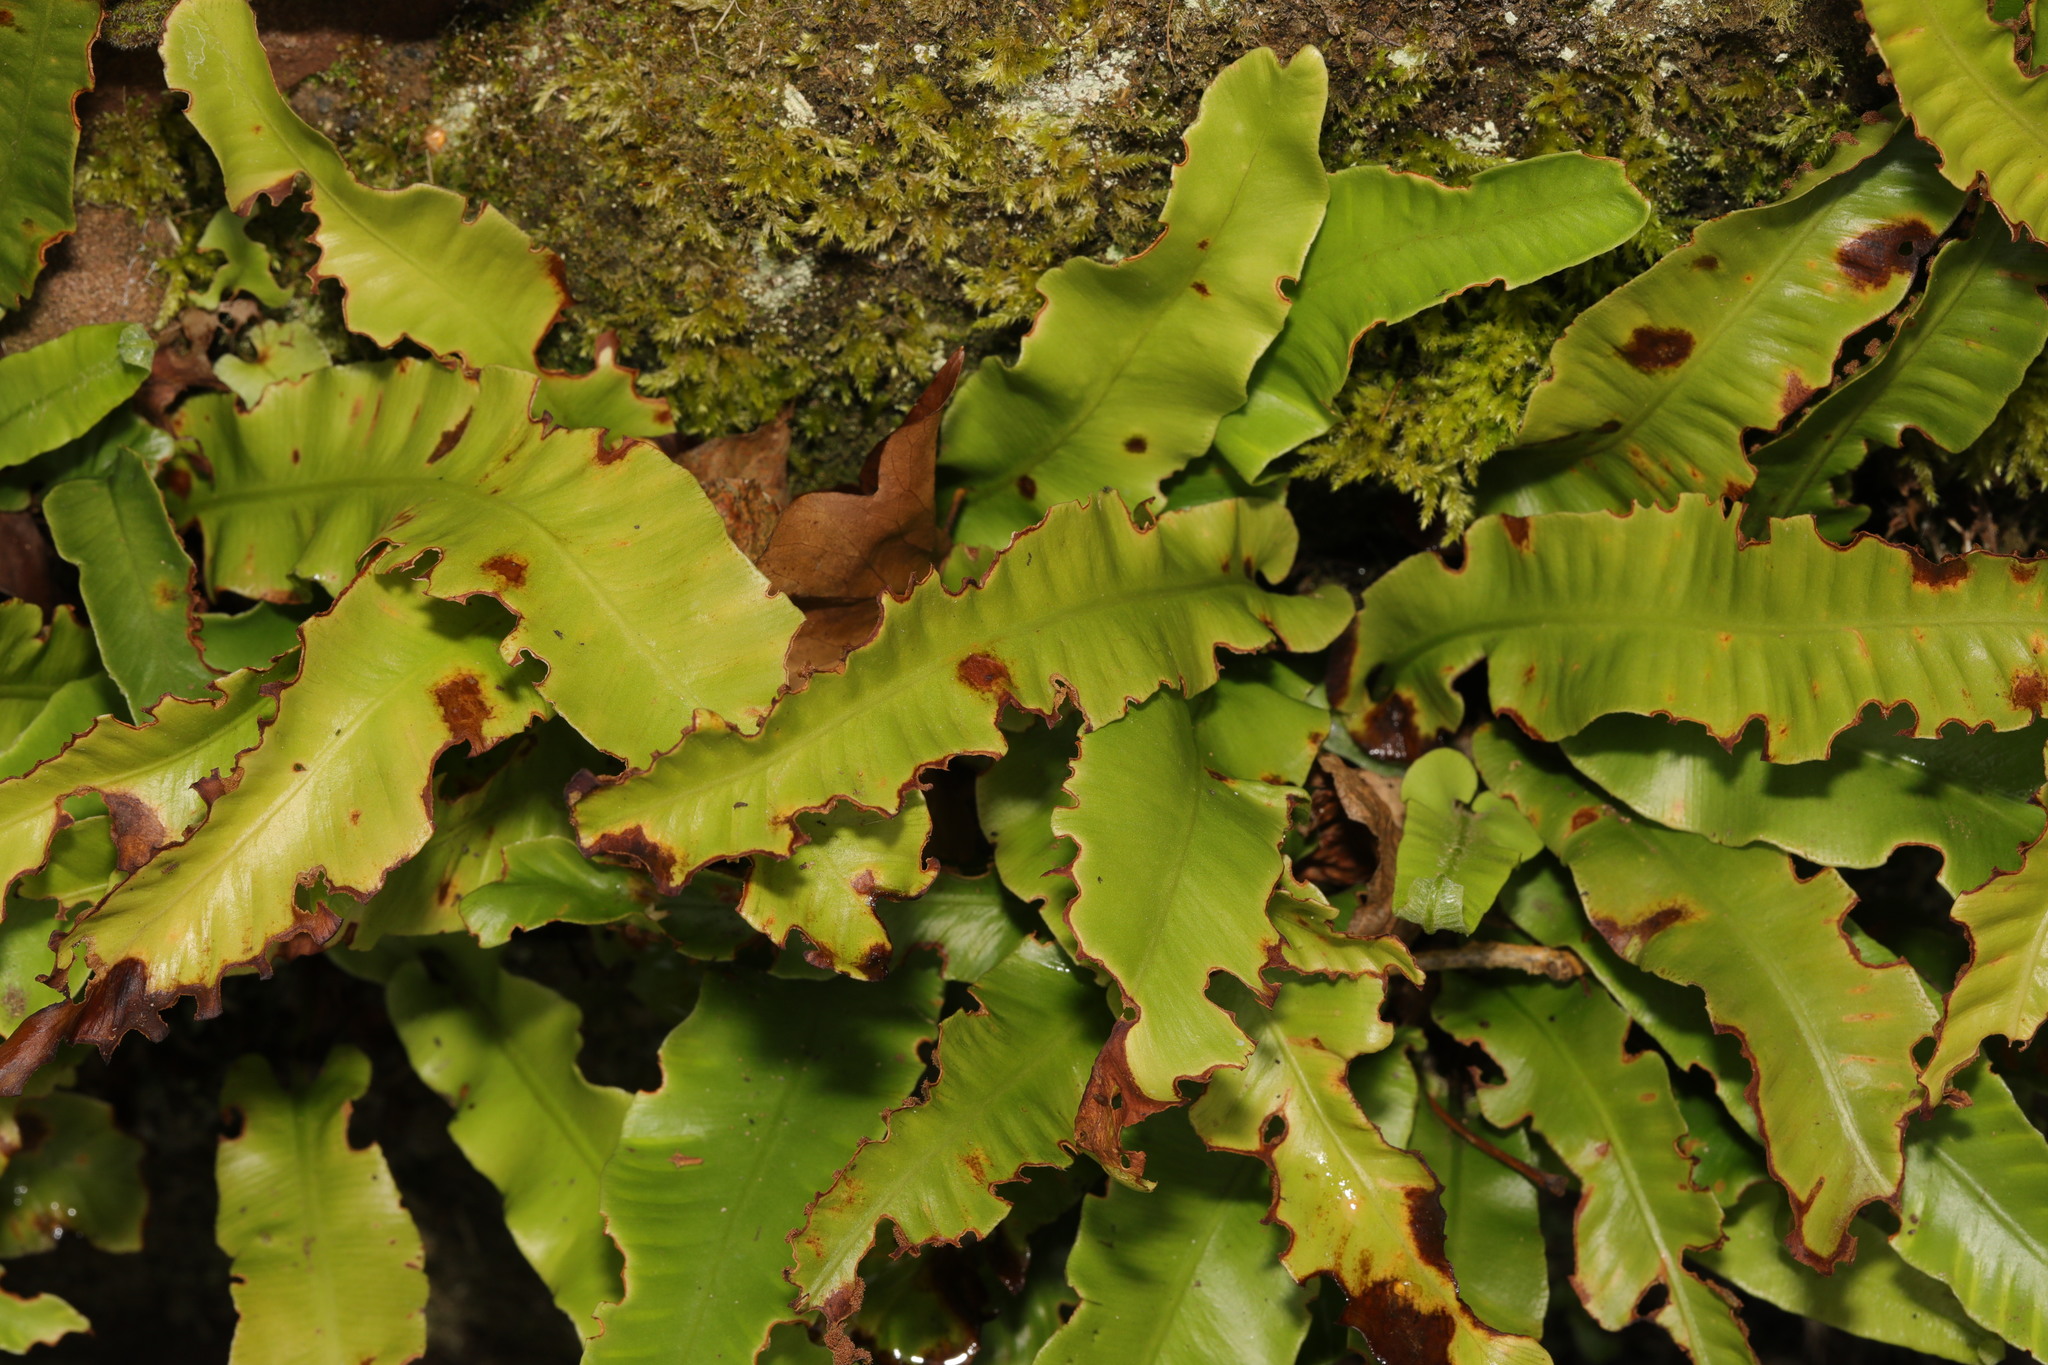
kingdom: Plantae
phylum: Tracheophyta
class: Polypodiopsida
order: Polypodiales
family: Aspleniaceae
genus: Asplenium
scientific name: Asplenium scolopendrium
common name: Hart's-tongue fern
